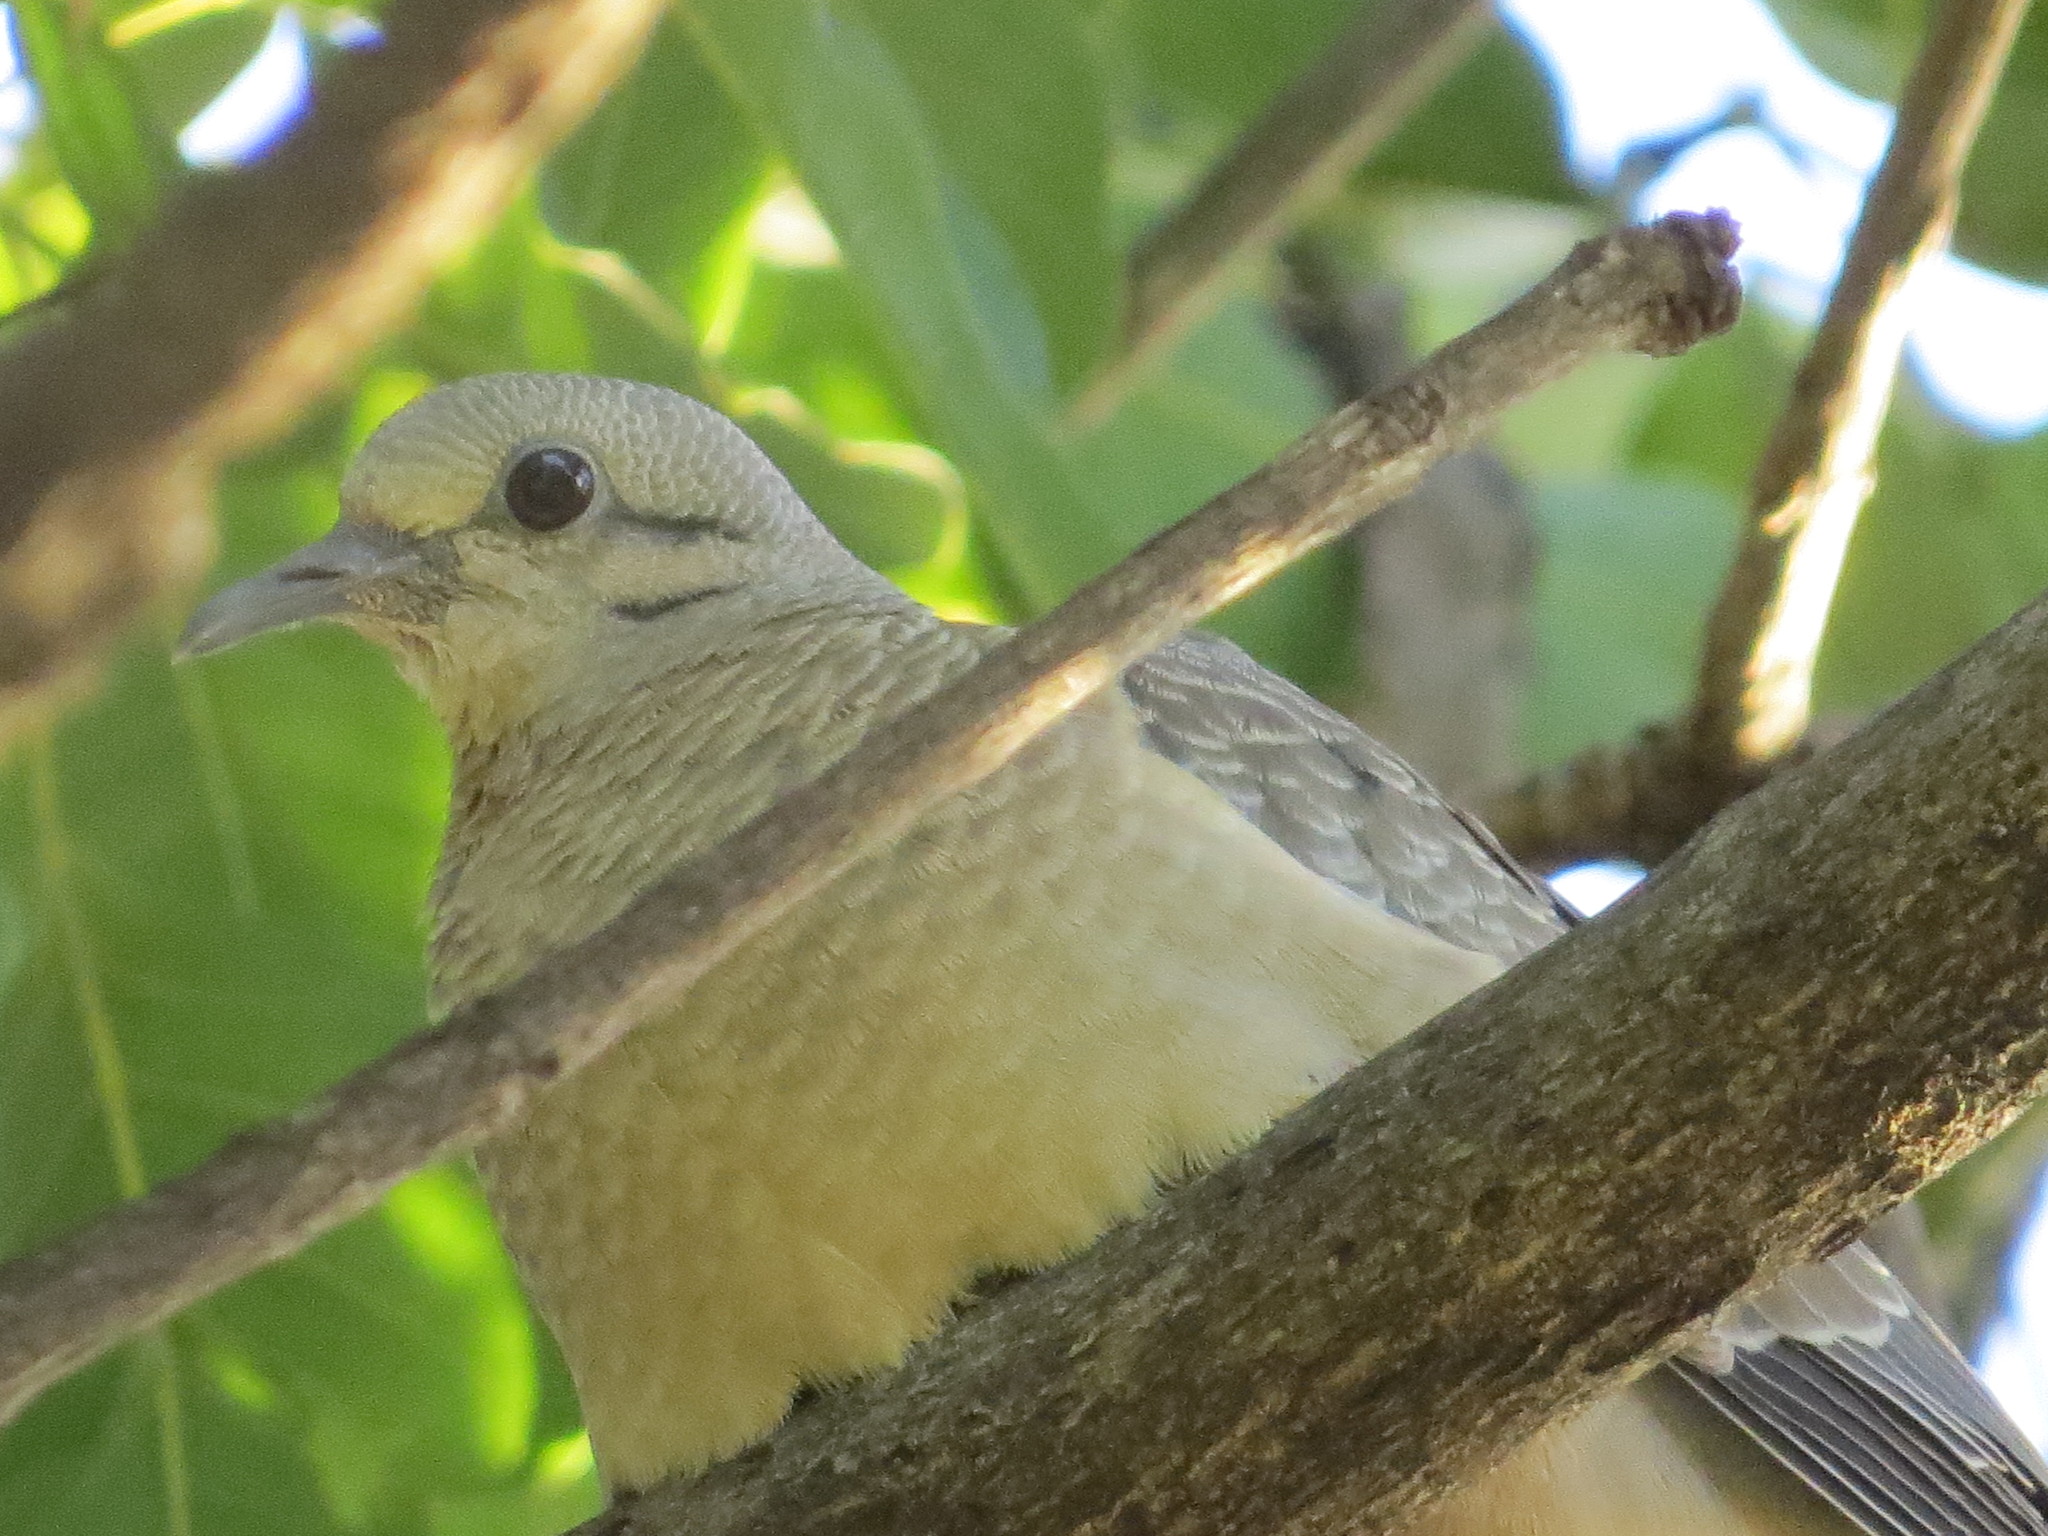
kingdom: Animalia
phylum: Chordata
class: Aves
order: Columbiformes
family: Columbidae
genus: Zenaida
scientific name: Zenaida auriculata
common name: Eared dove
